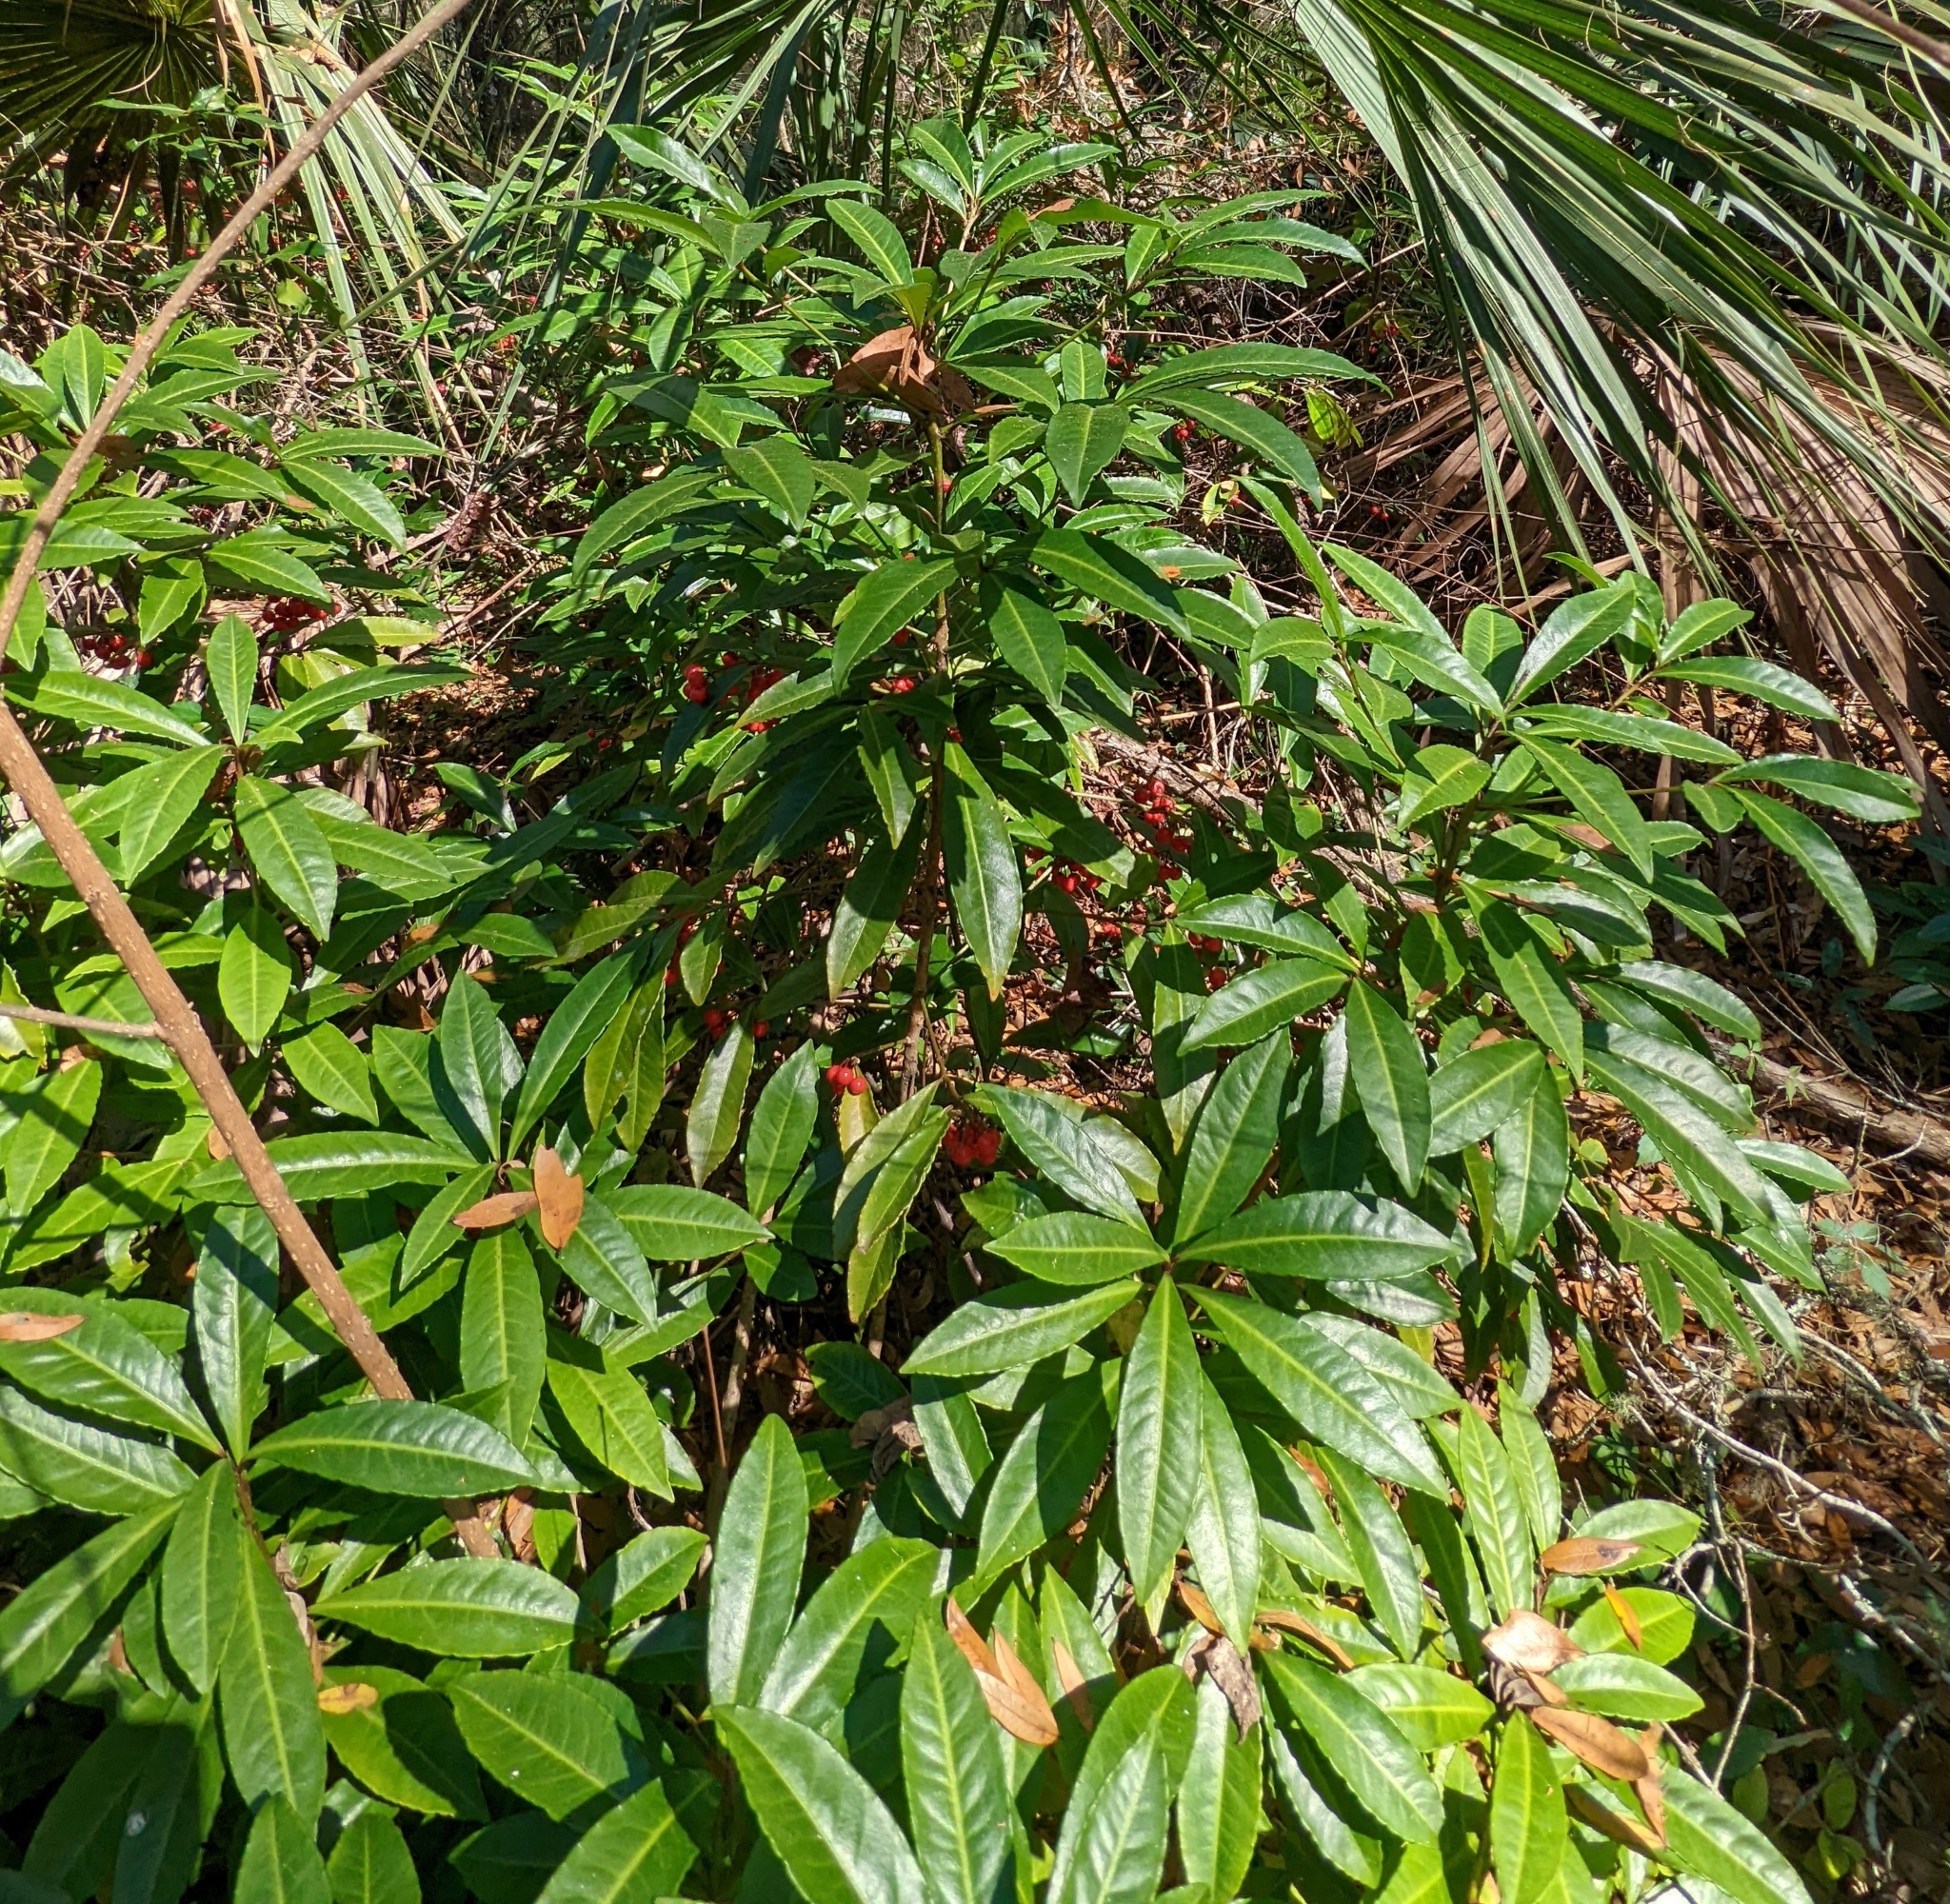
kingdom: Plantae
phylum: Tracheophyta
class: Magnoliopsida
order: Ericales
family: Primulaceae
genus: Ardisia
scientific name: Ardisia crenata
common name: Hen's eyes
